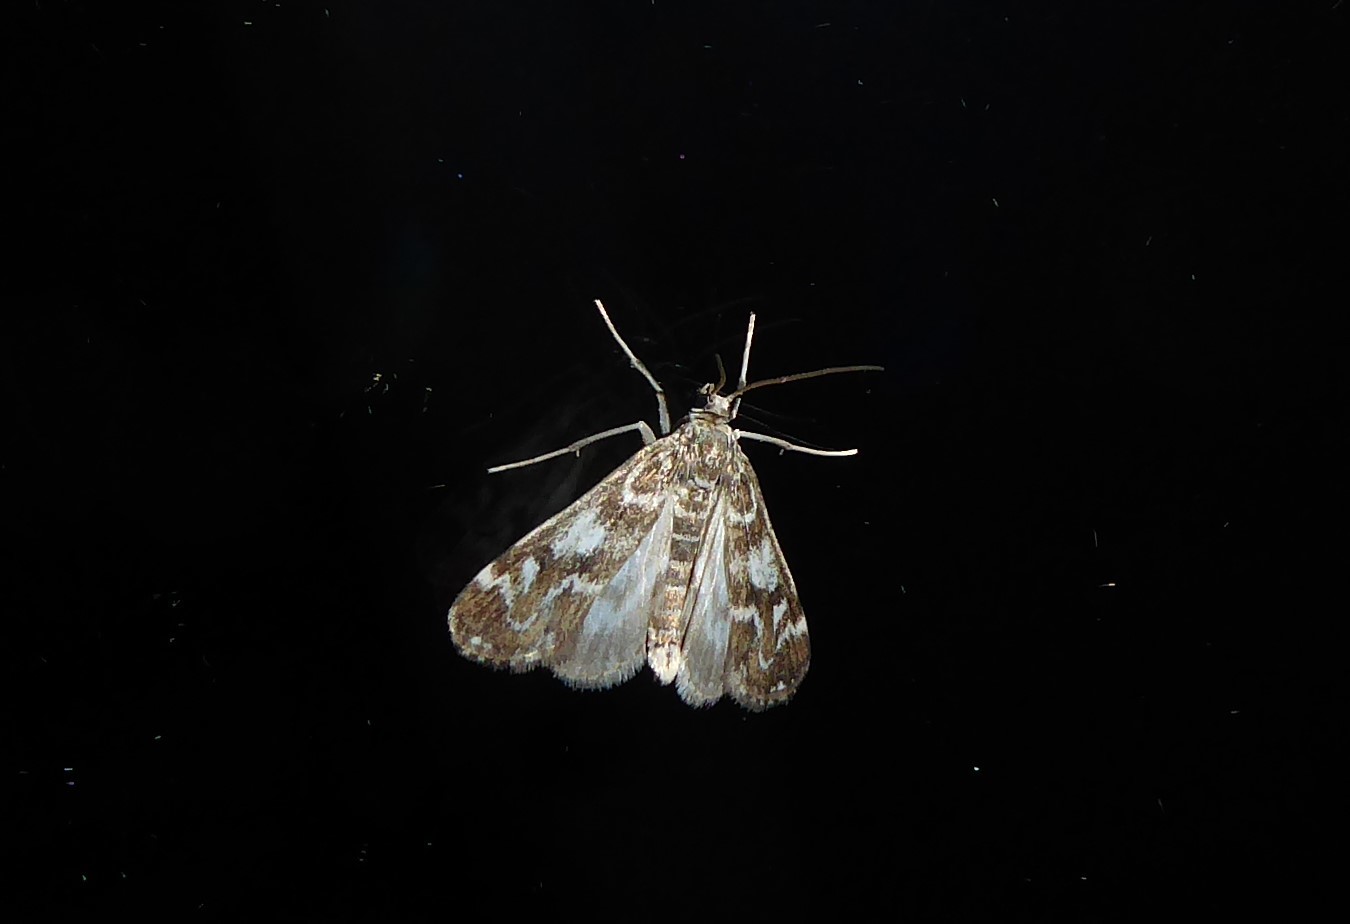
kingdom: Animalia
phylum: Arthropoda
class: Insecta
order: Lepidoptera
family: Crambidae
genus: Hygraula
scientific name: Hygraula nitens
